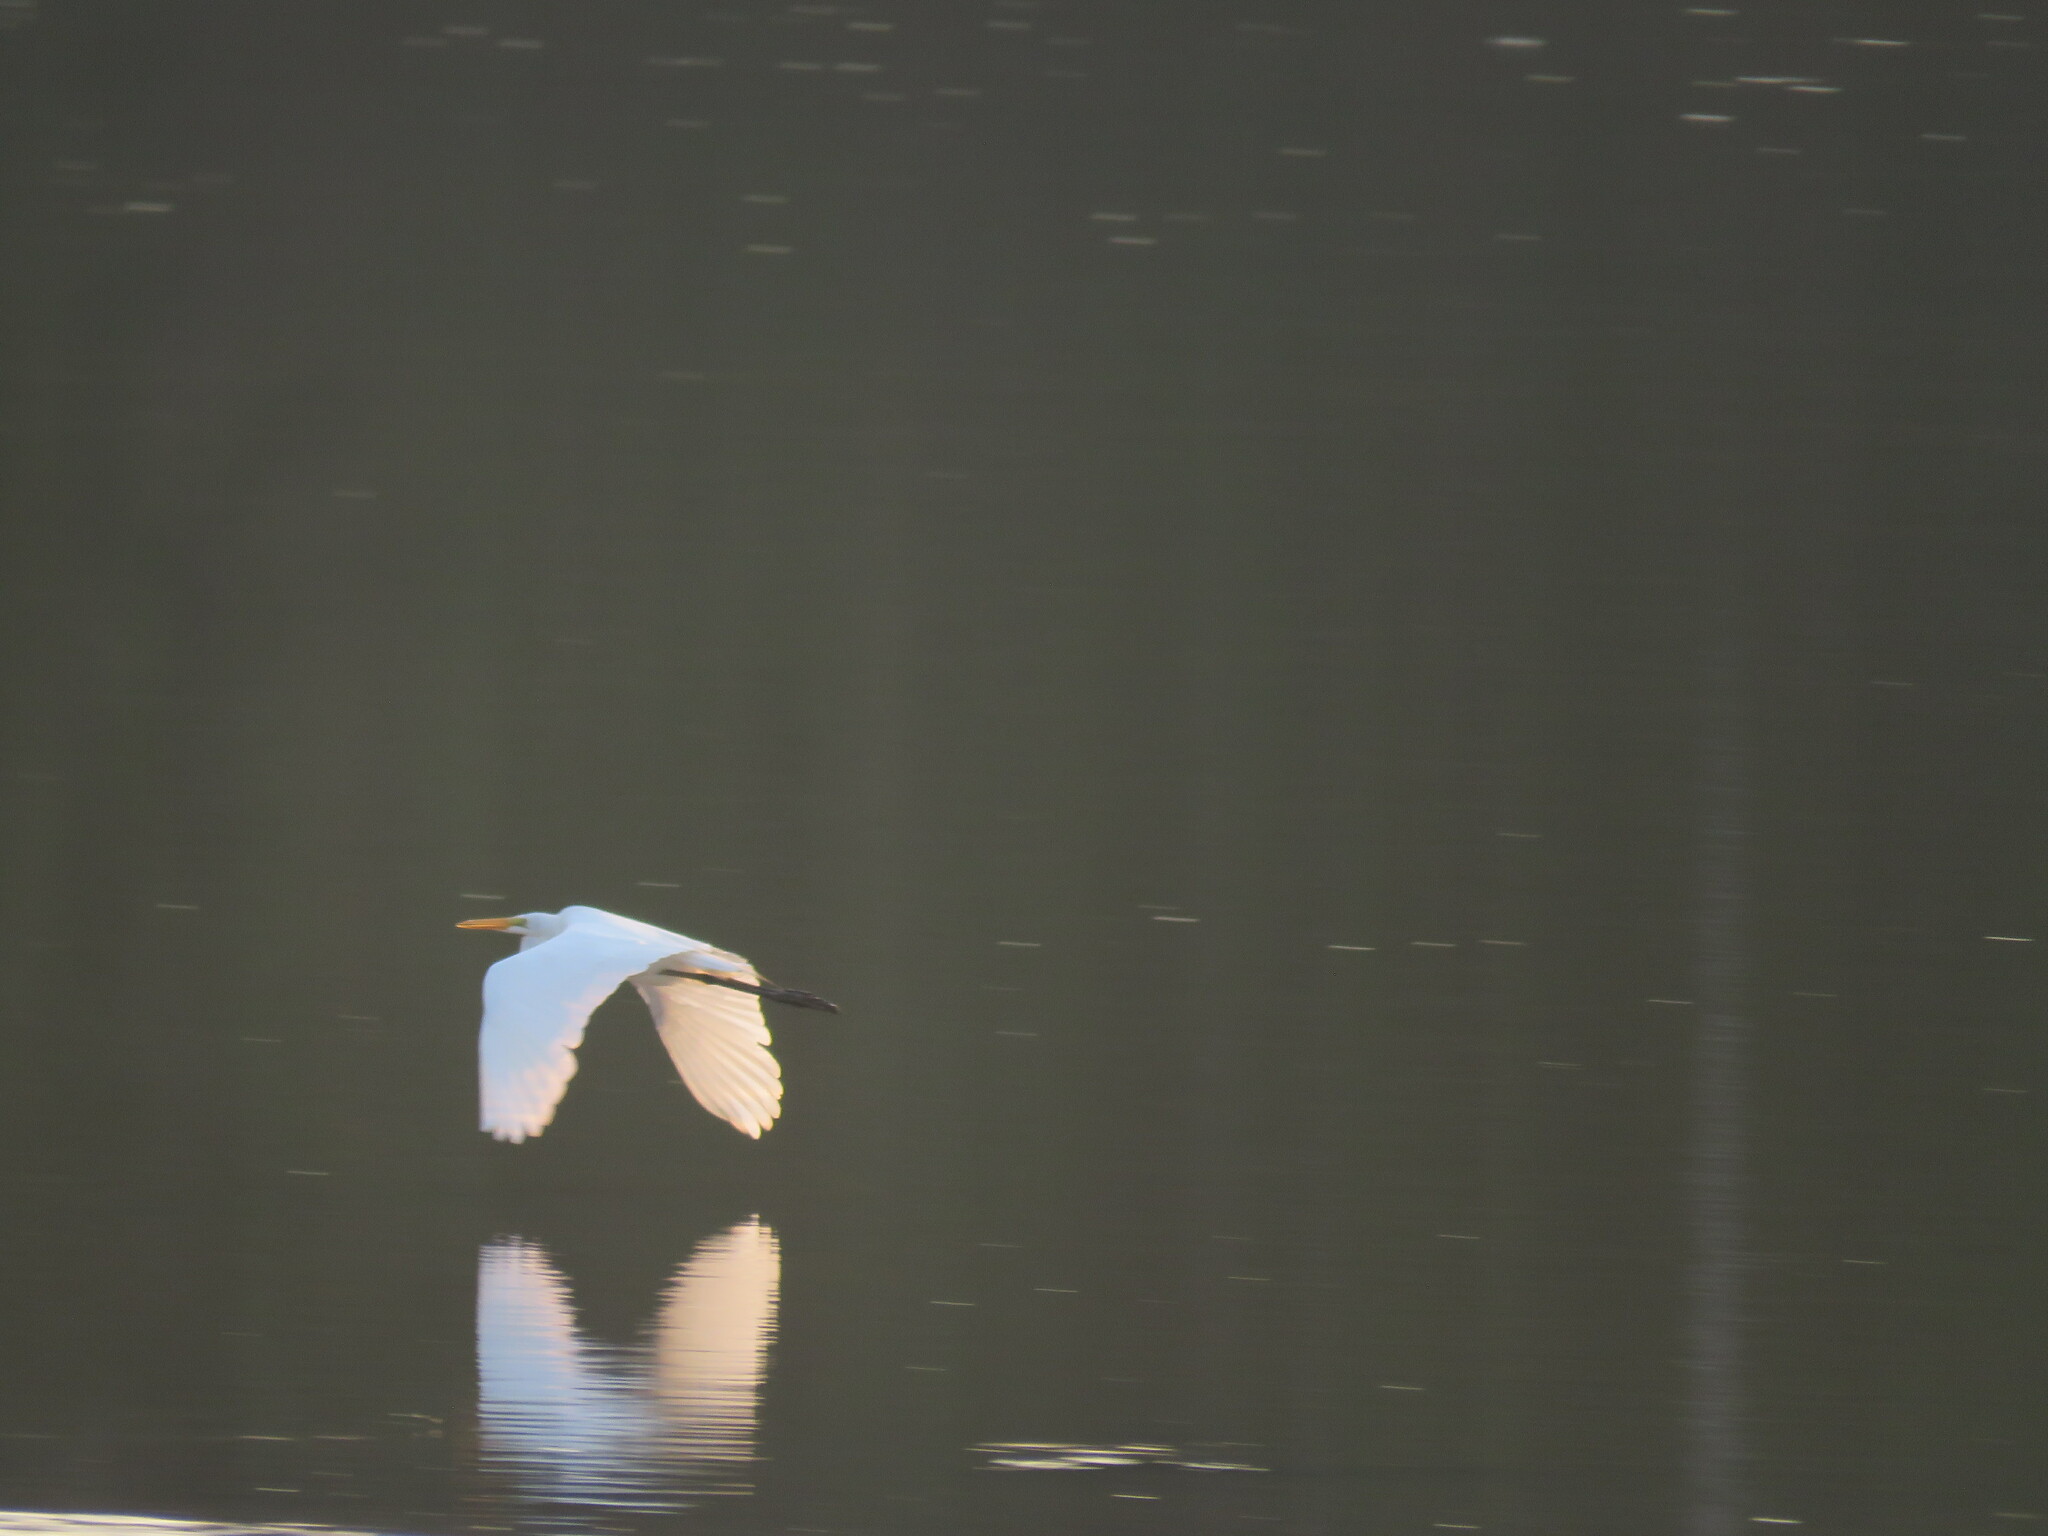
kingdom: Animalia
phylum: Chordata
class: Aves
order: Pelecaniformes
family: Ardeidae
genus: Ardea
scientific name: Ardea alba
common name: Great egret
